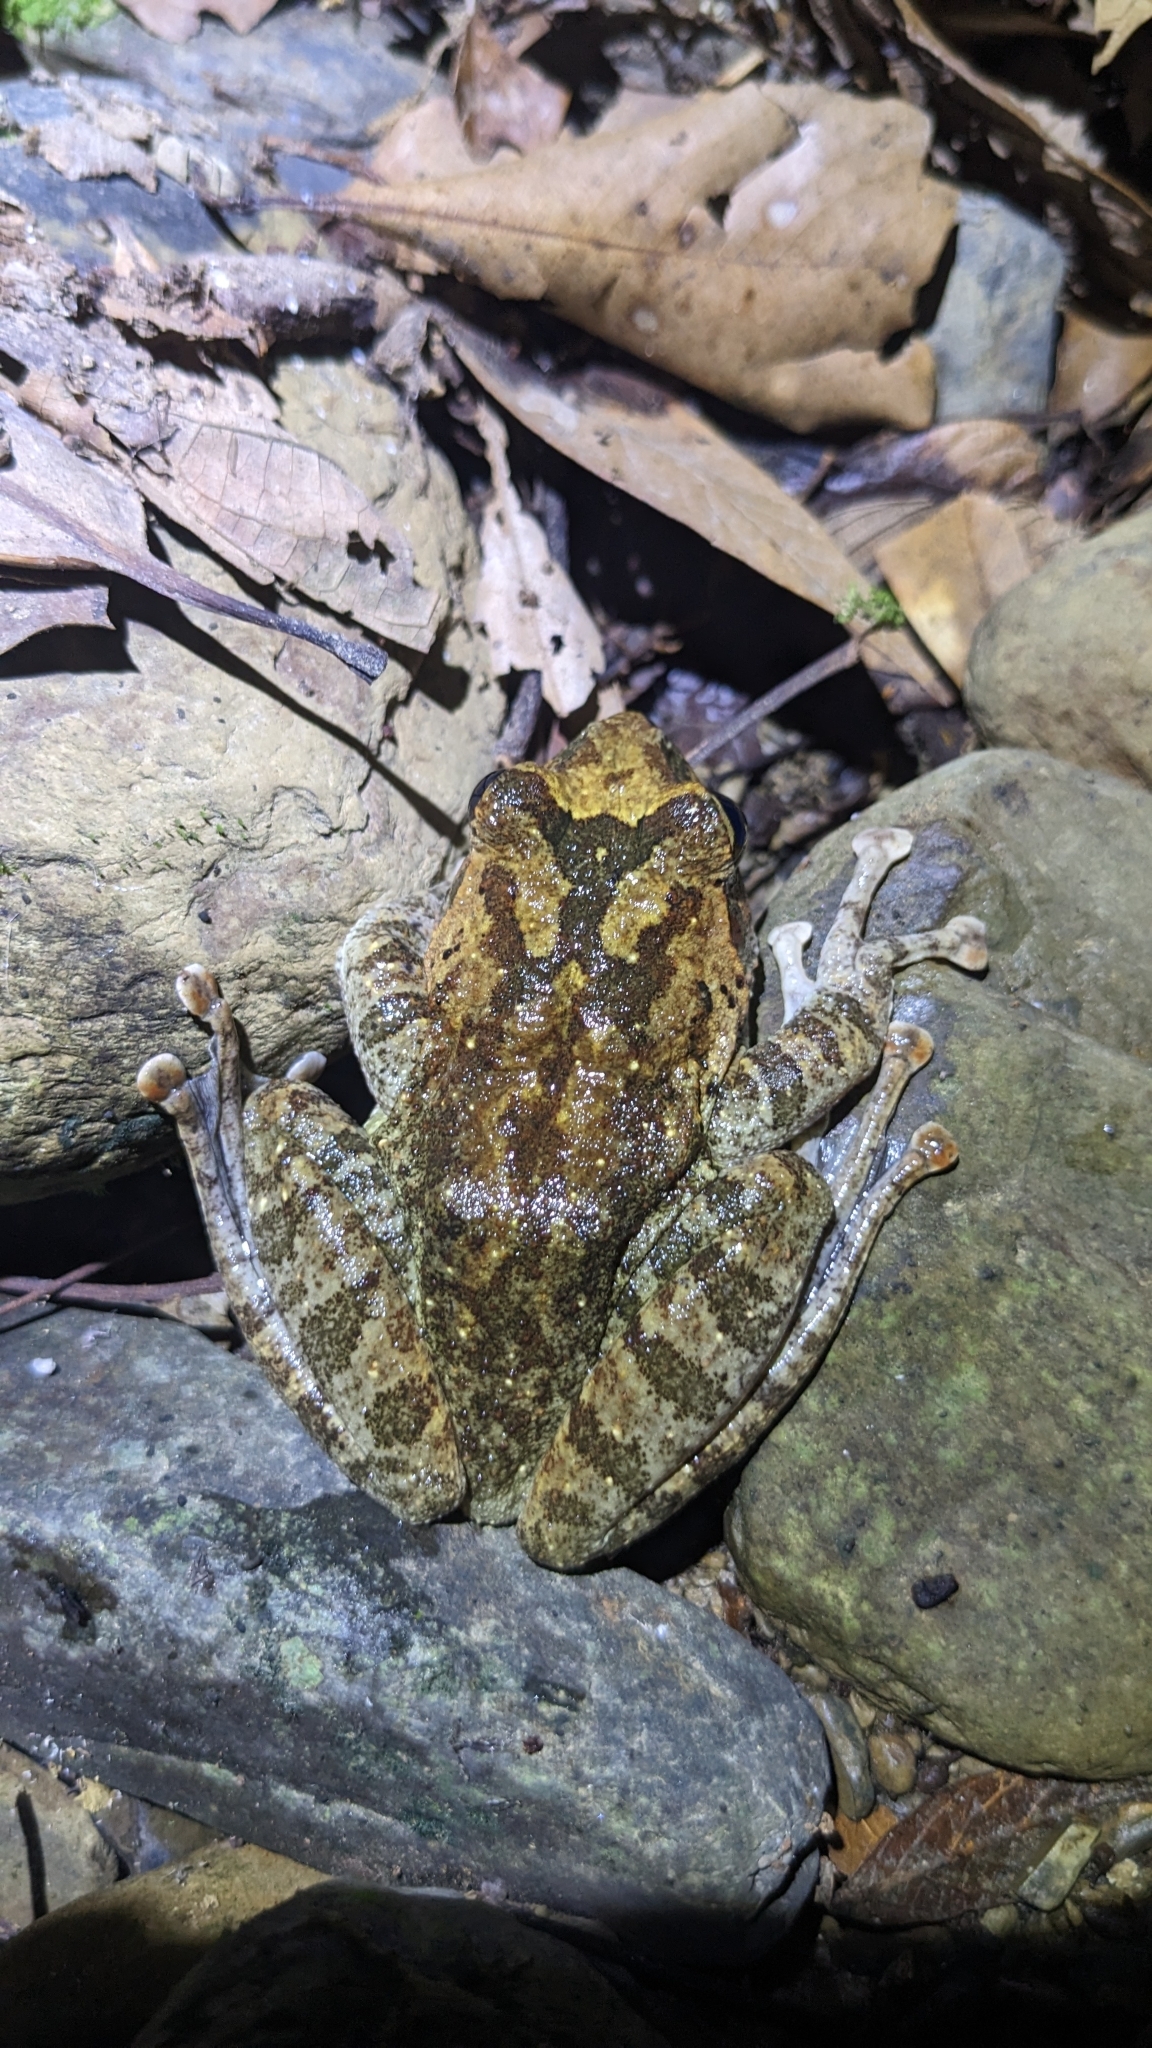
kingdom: Animalia
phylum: Chordata
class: Amphibia
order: Anura
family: Rhacophoridae
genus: Buergeria
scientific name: Buergeria robusta
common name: Brown treefrog
